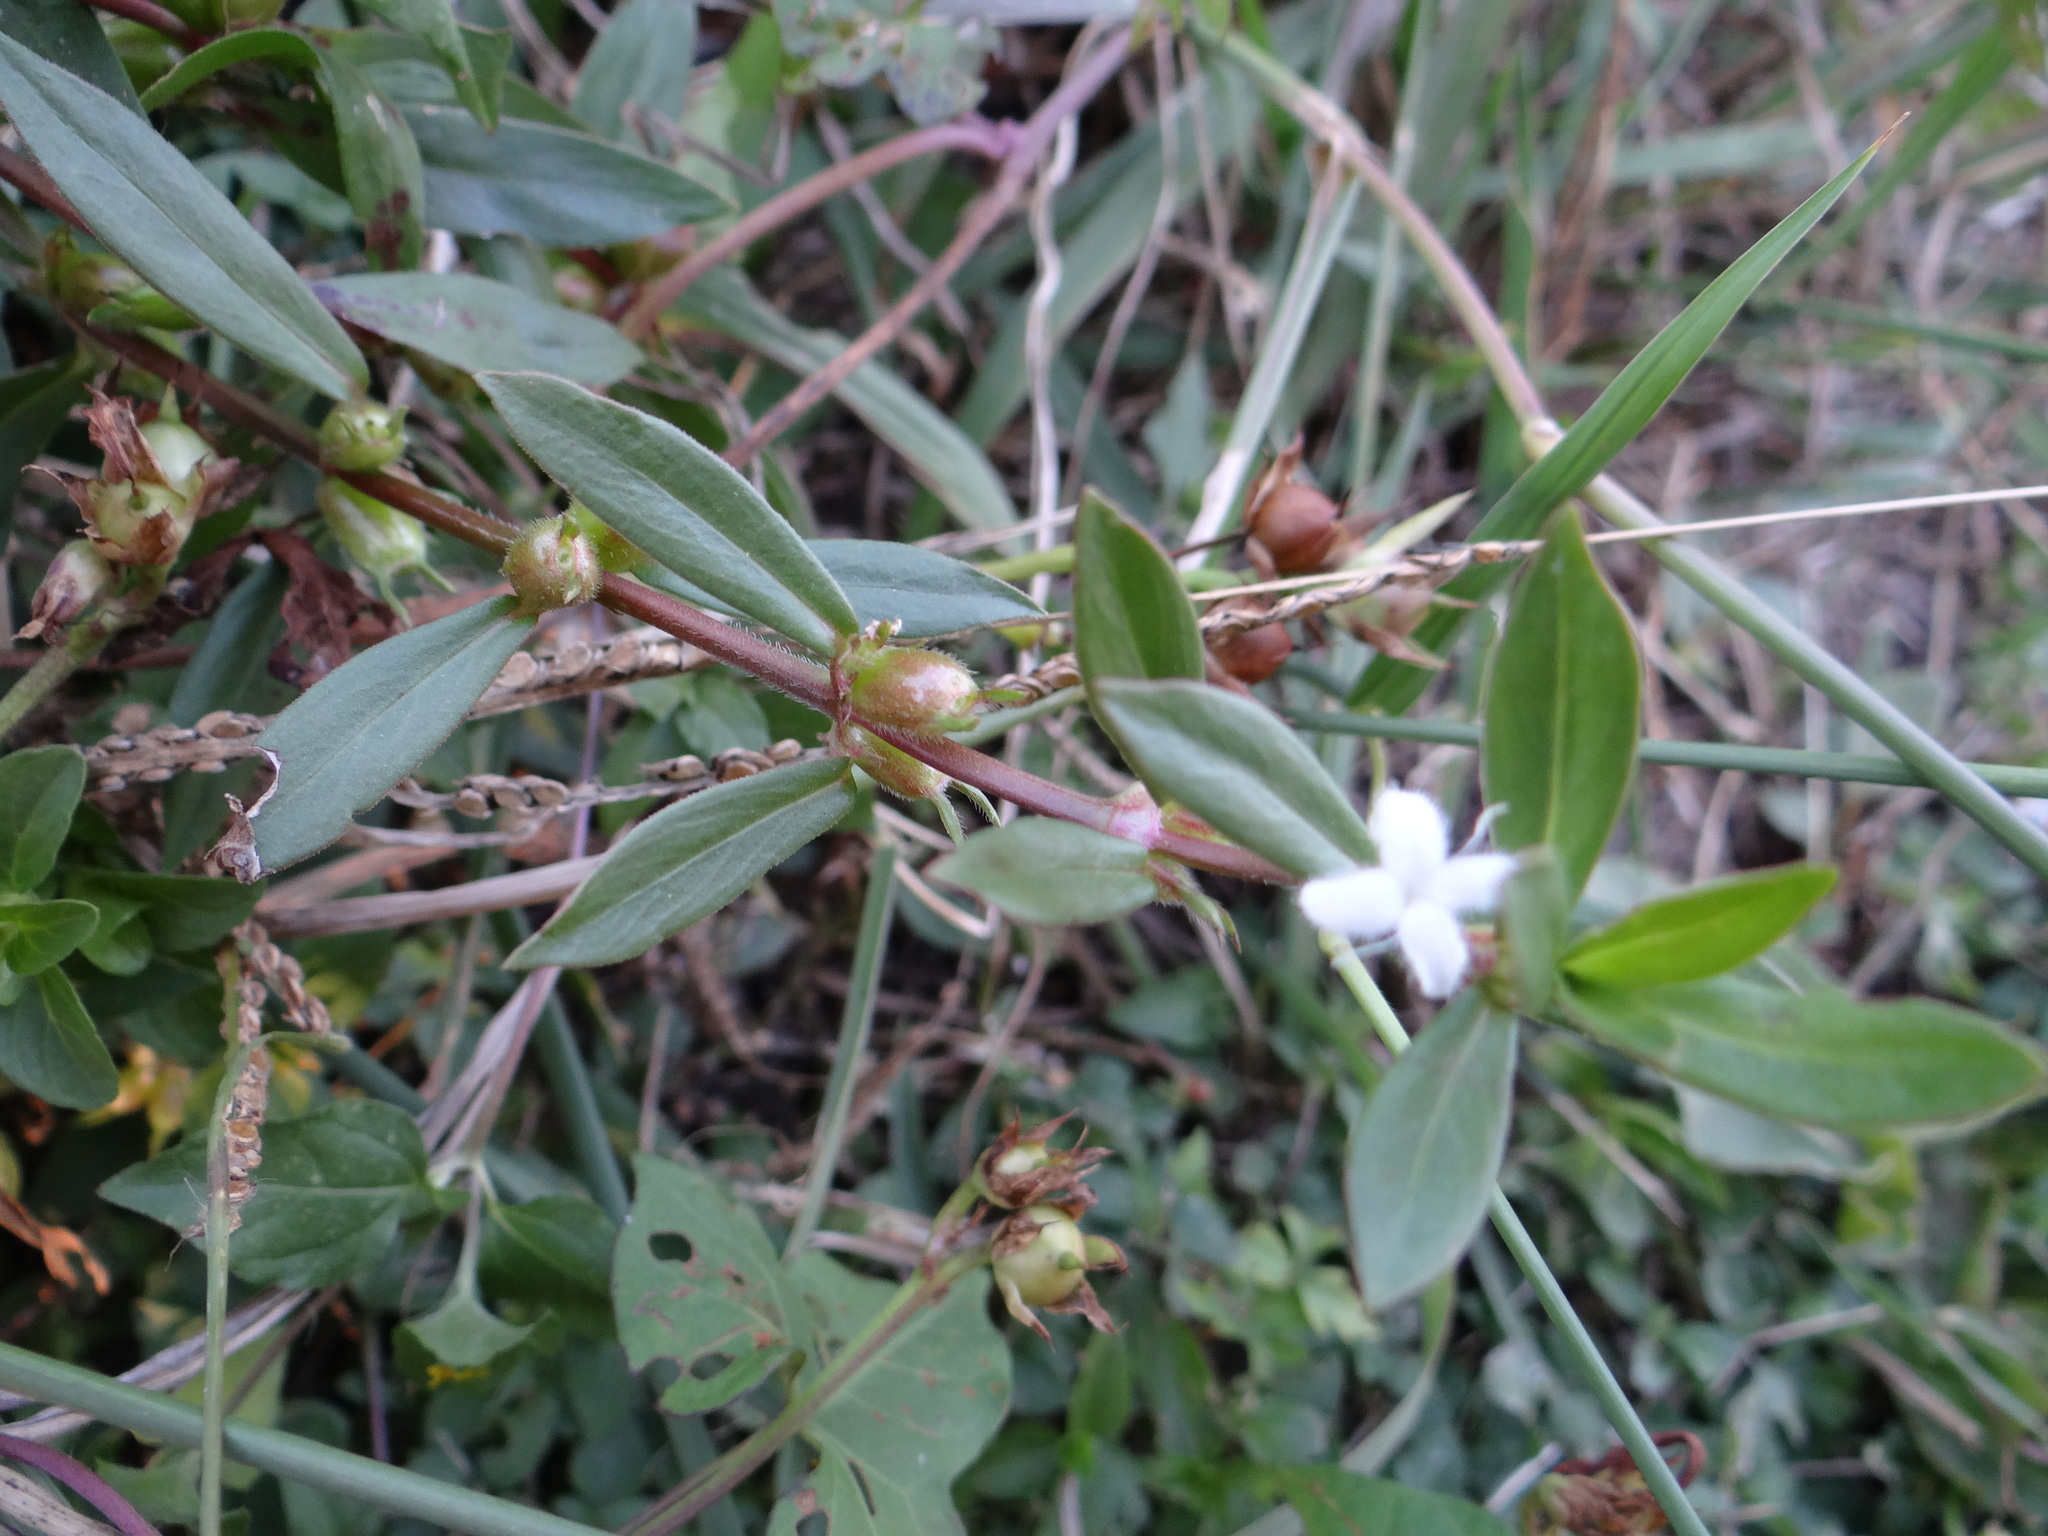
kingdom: Plantae
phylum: Tracheophyta
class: Magnoliopsida
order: Gentianales
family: Rubiaceae
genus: Diodia
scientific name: Diodia virginiana
